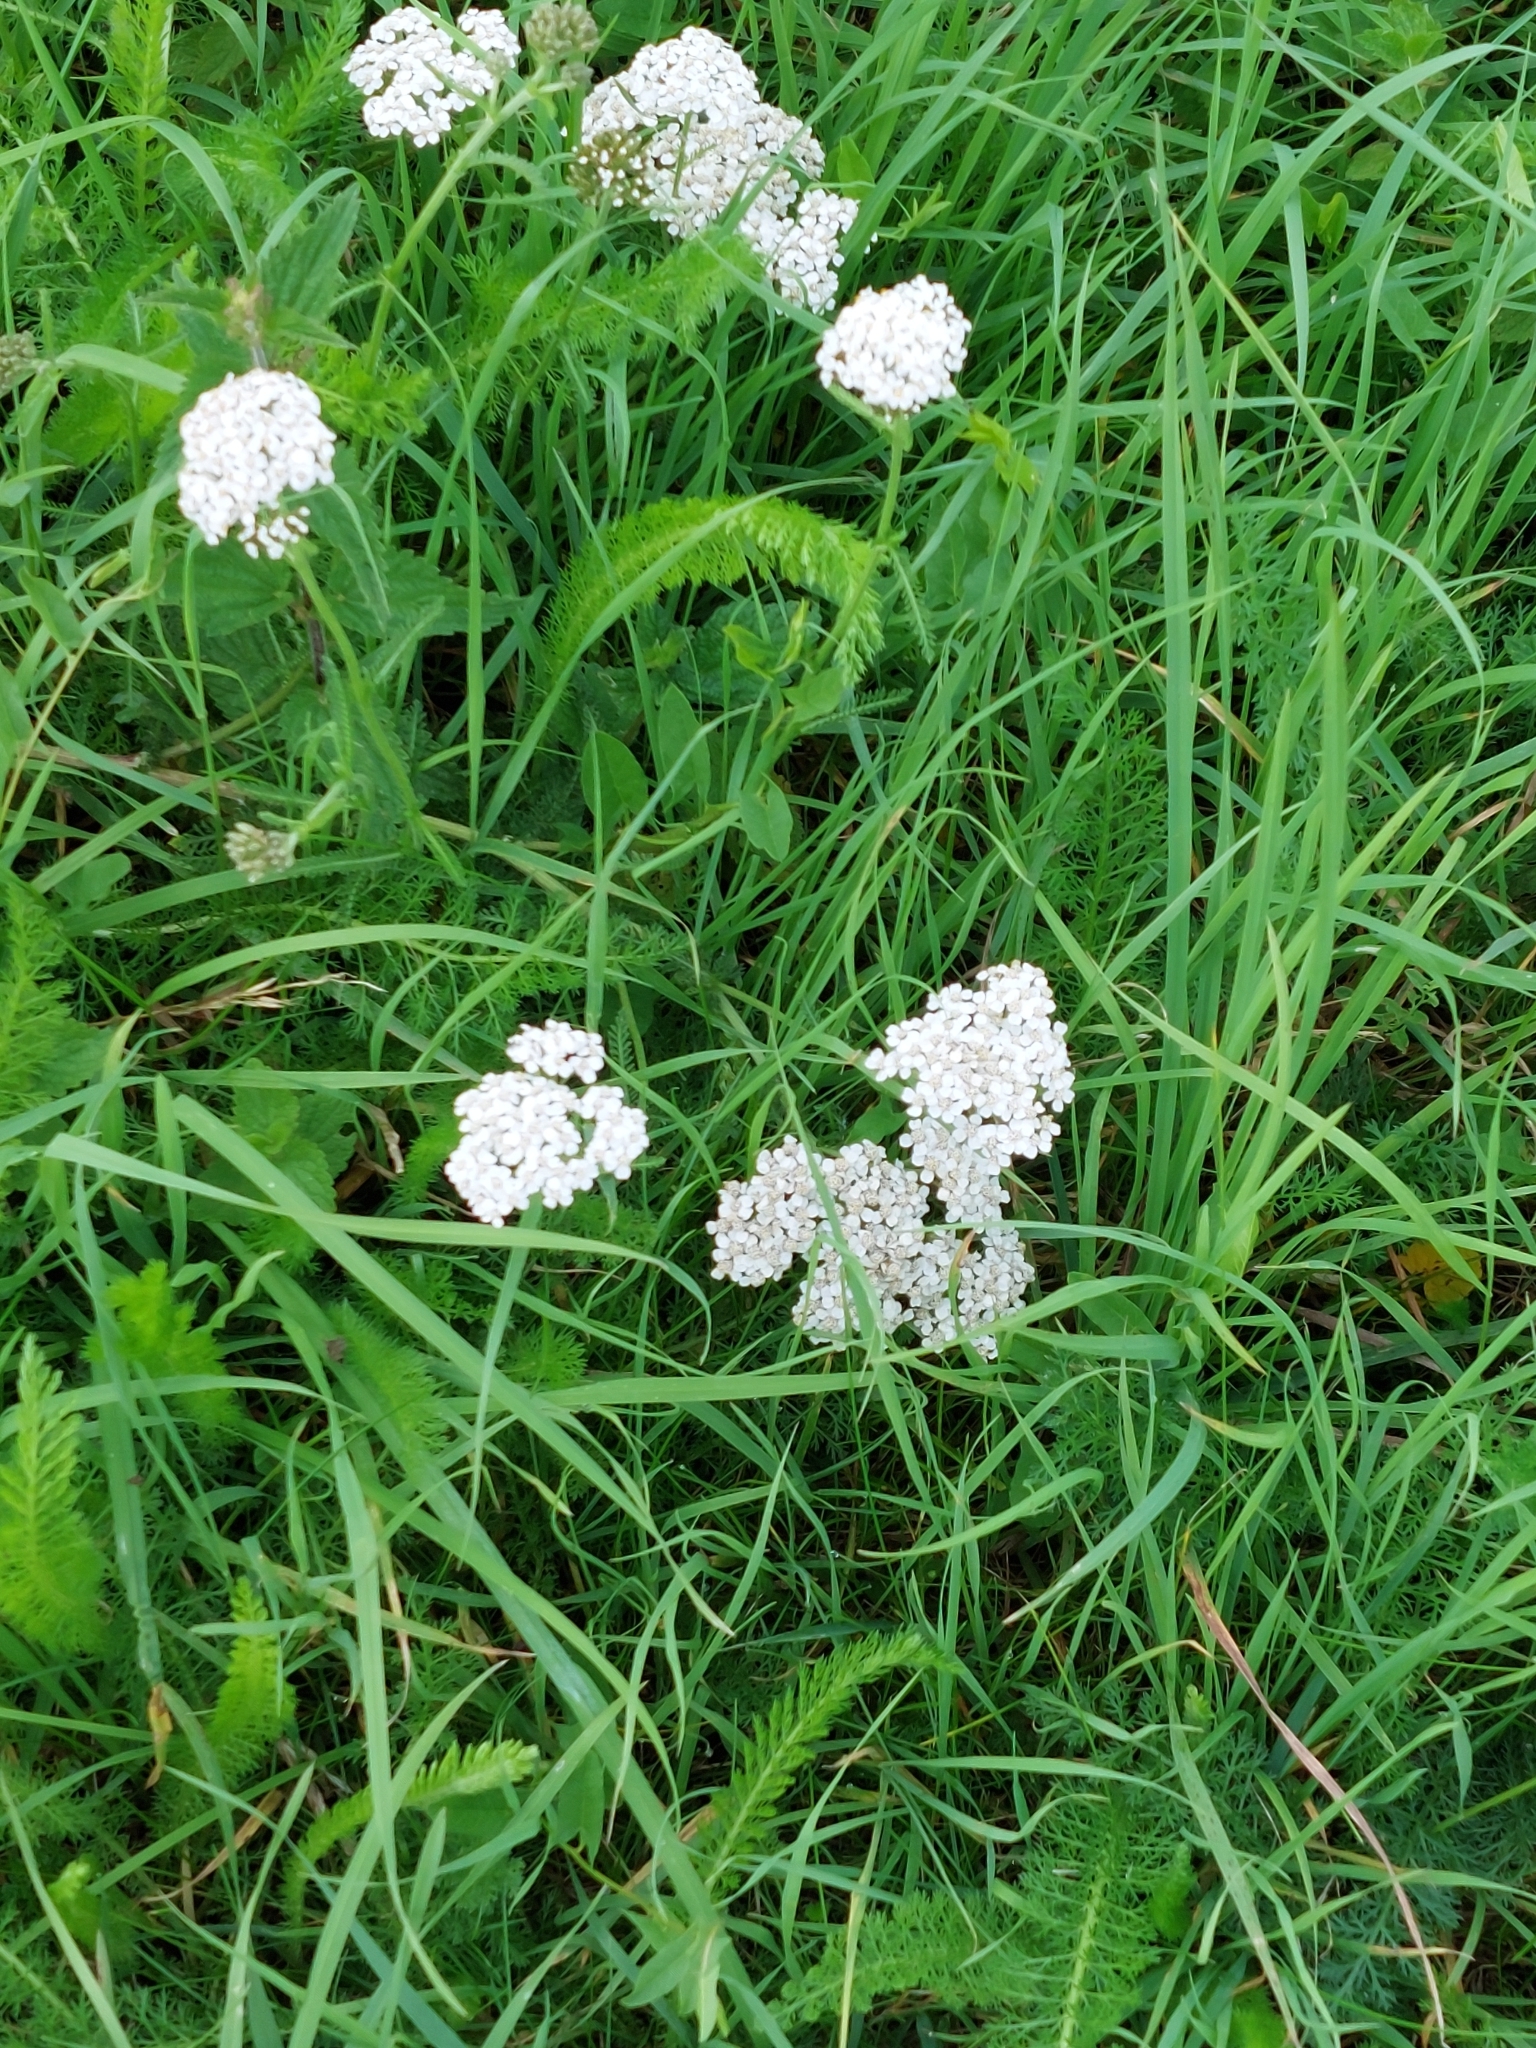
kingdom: Plantae
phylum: Tracheophyta
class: Magnoliopsida
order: Asterales
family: Asteraceae
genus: Achillea
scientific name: Achillea millefolium
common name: Yarrow
